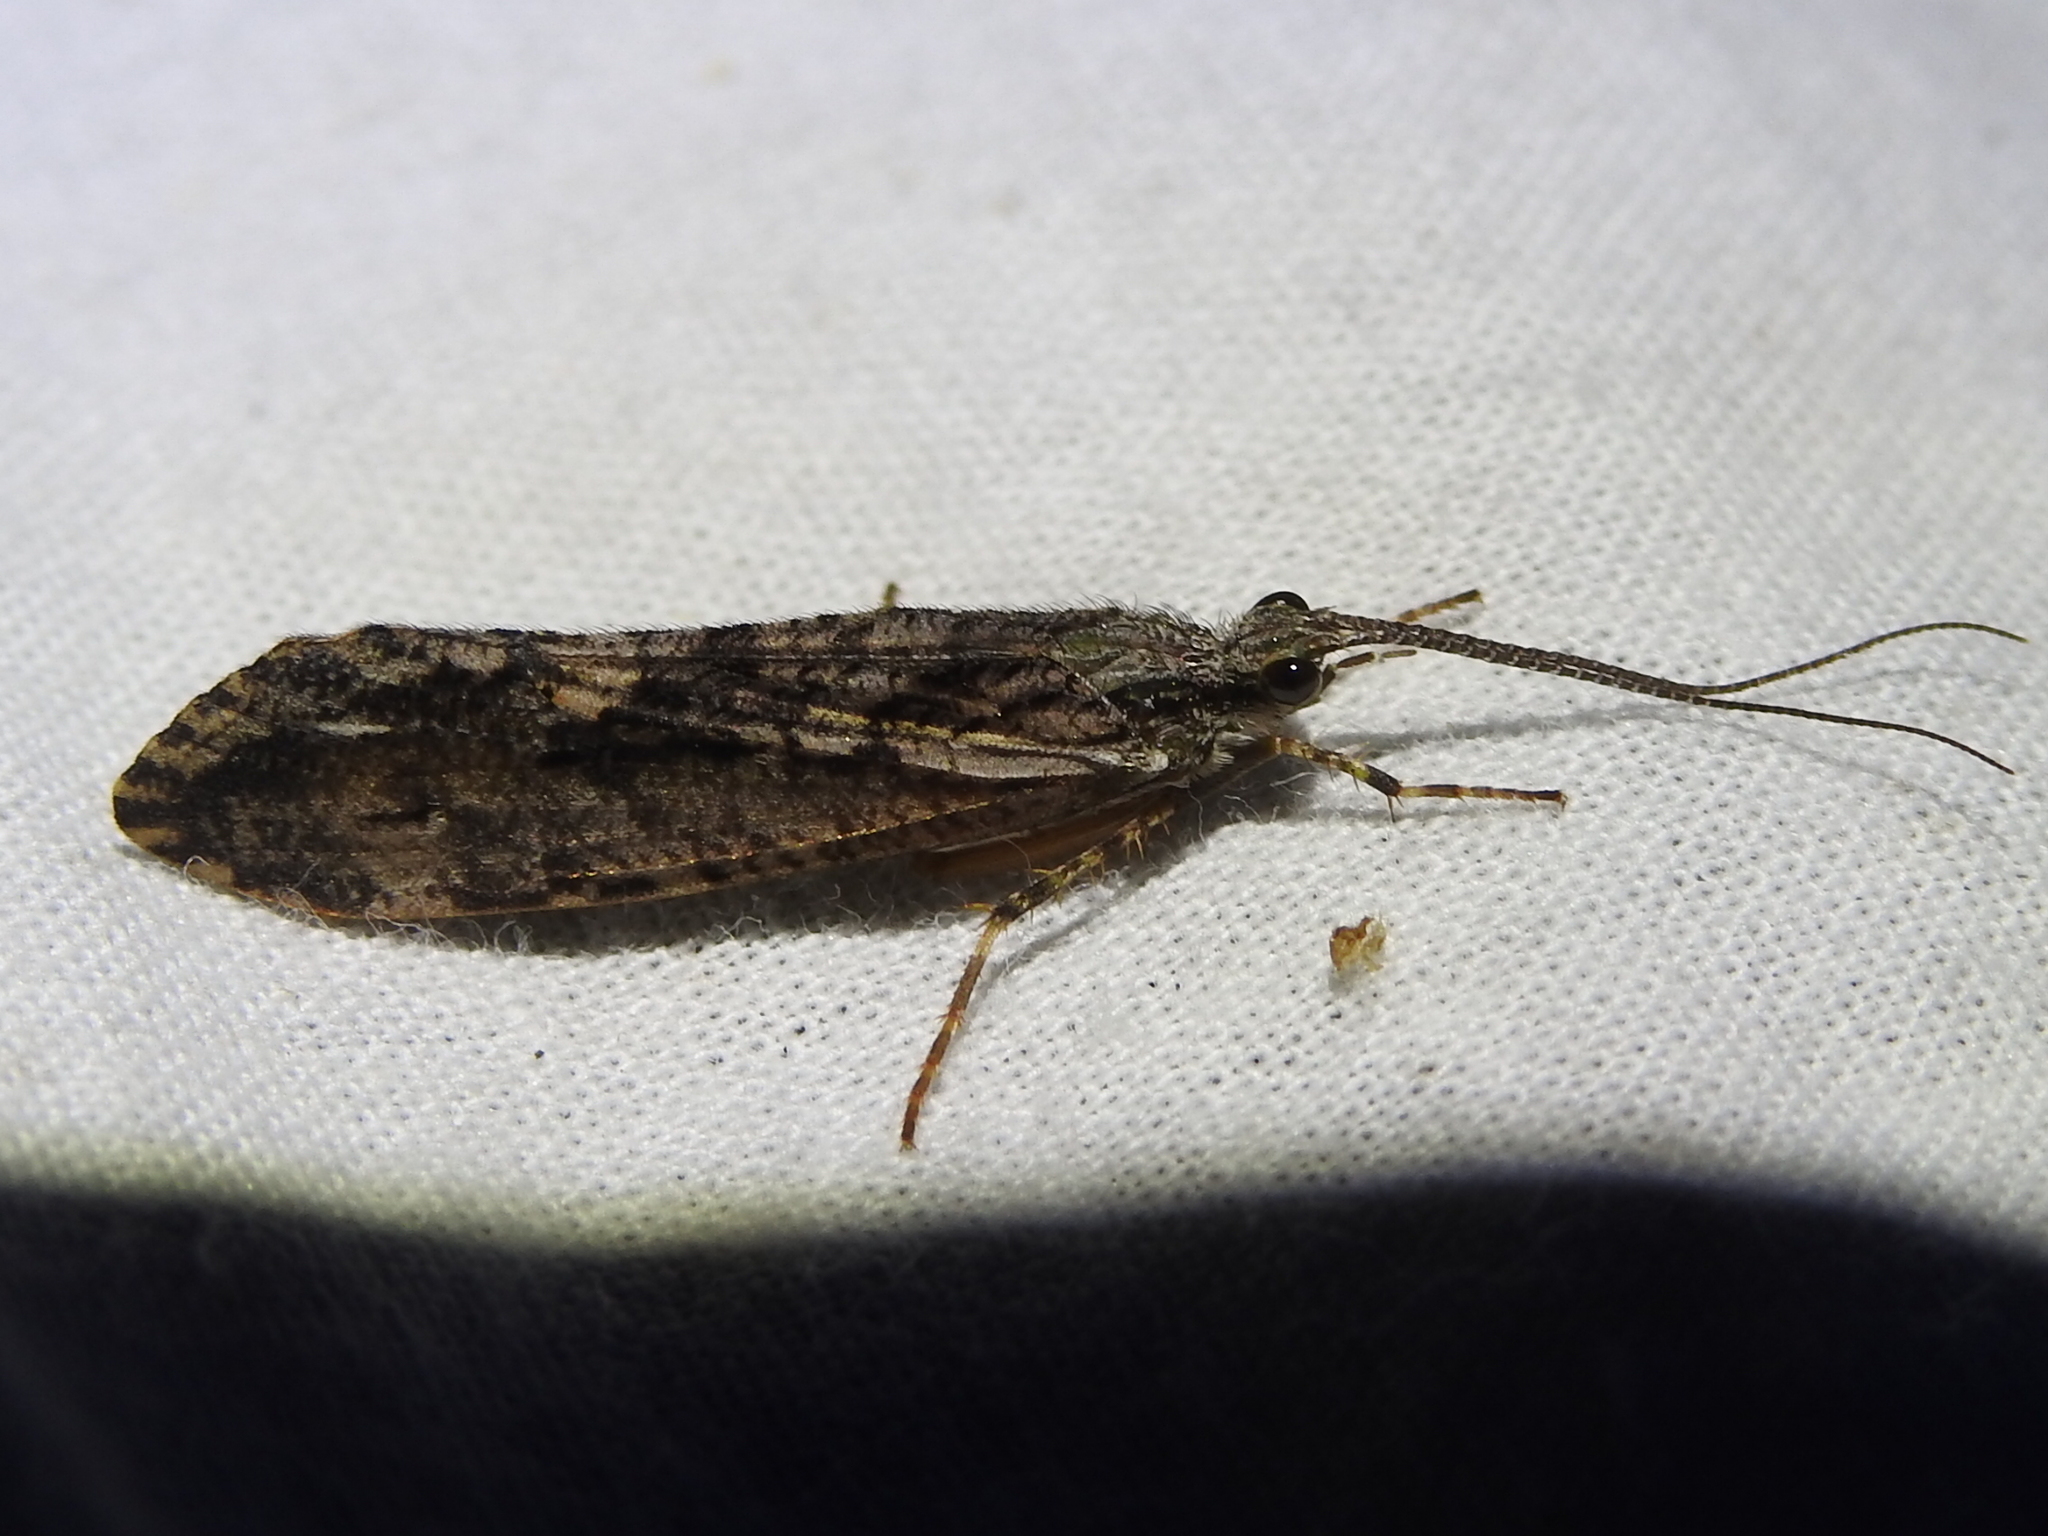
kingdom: Animalia
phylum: Arthropoda
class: Insecta
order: Trichoptera
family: Phryganeidae
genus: Phryganea
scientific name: Phryganea sayi
